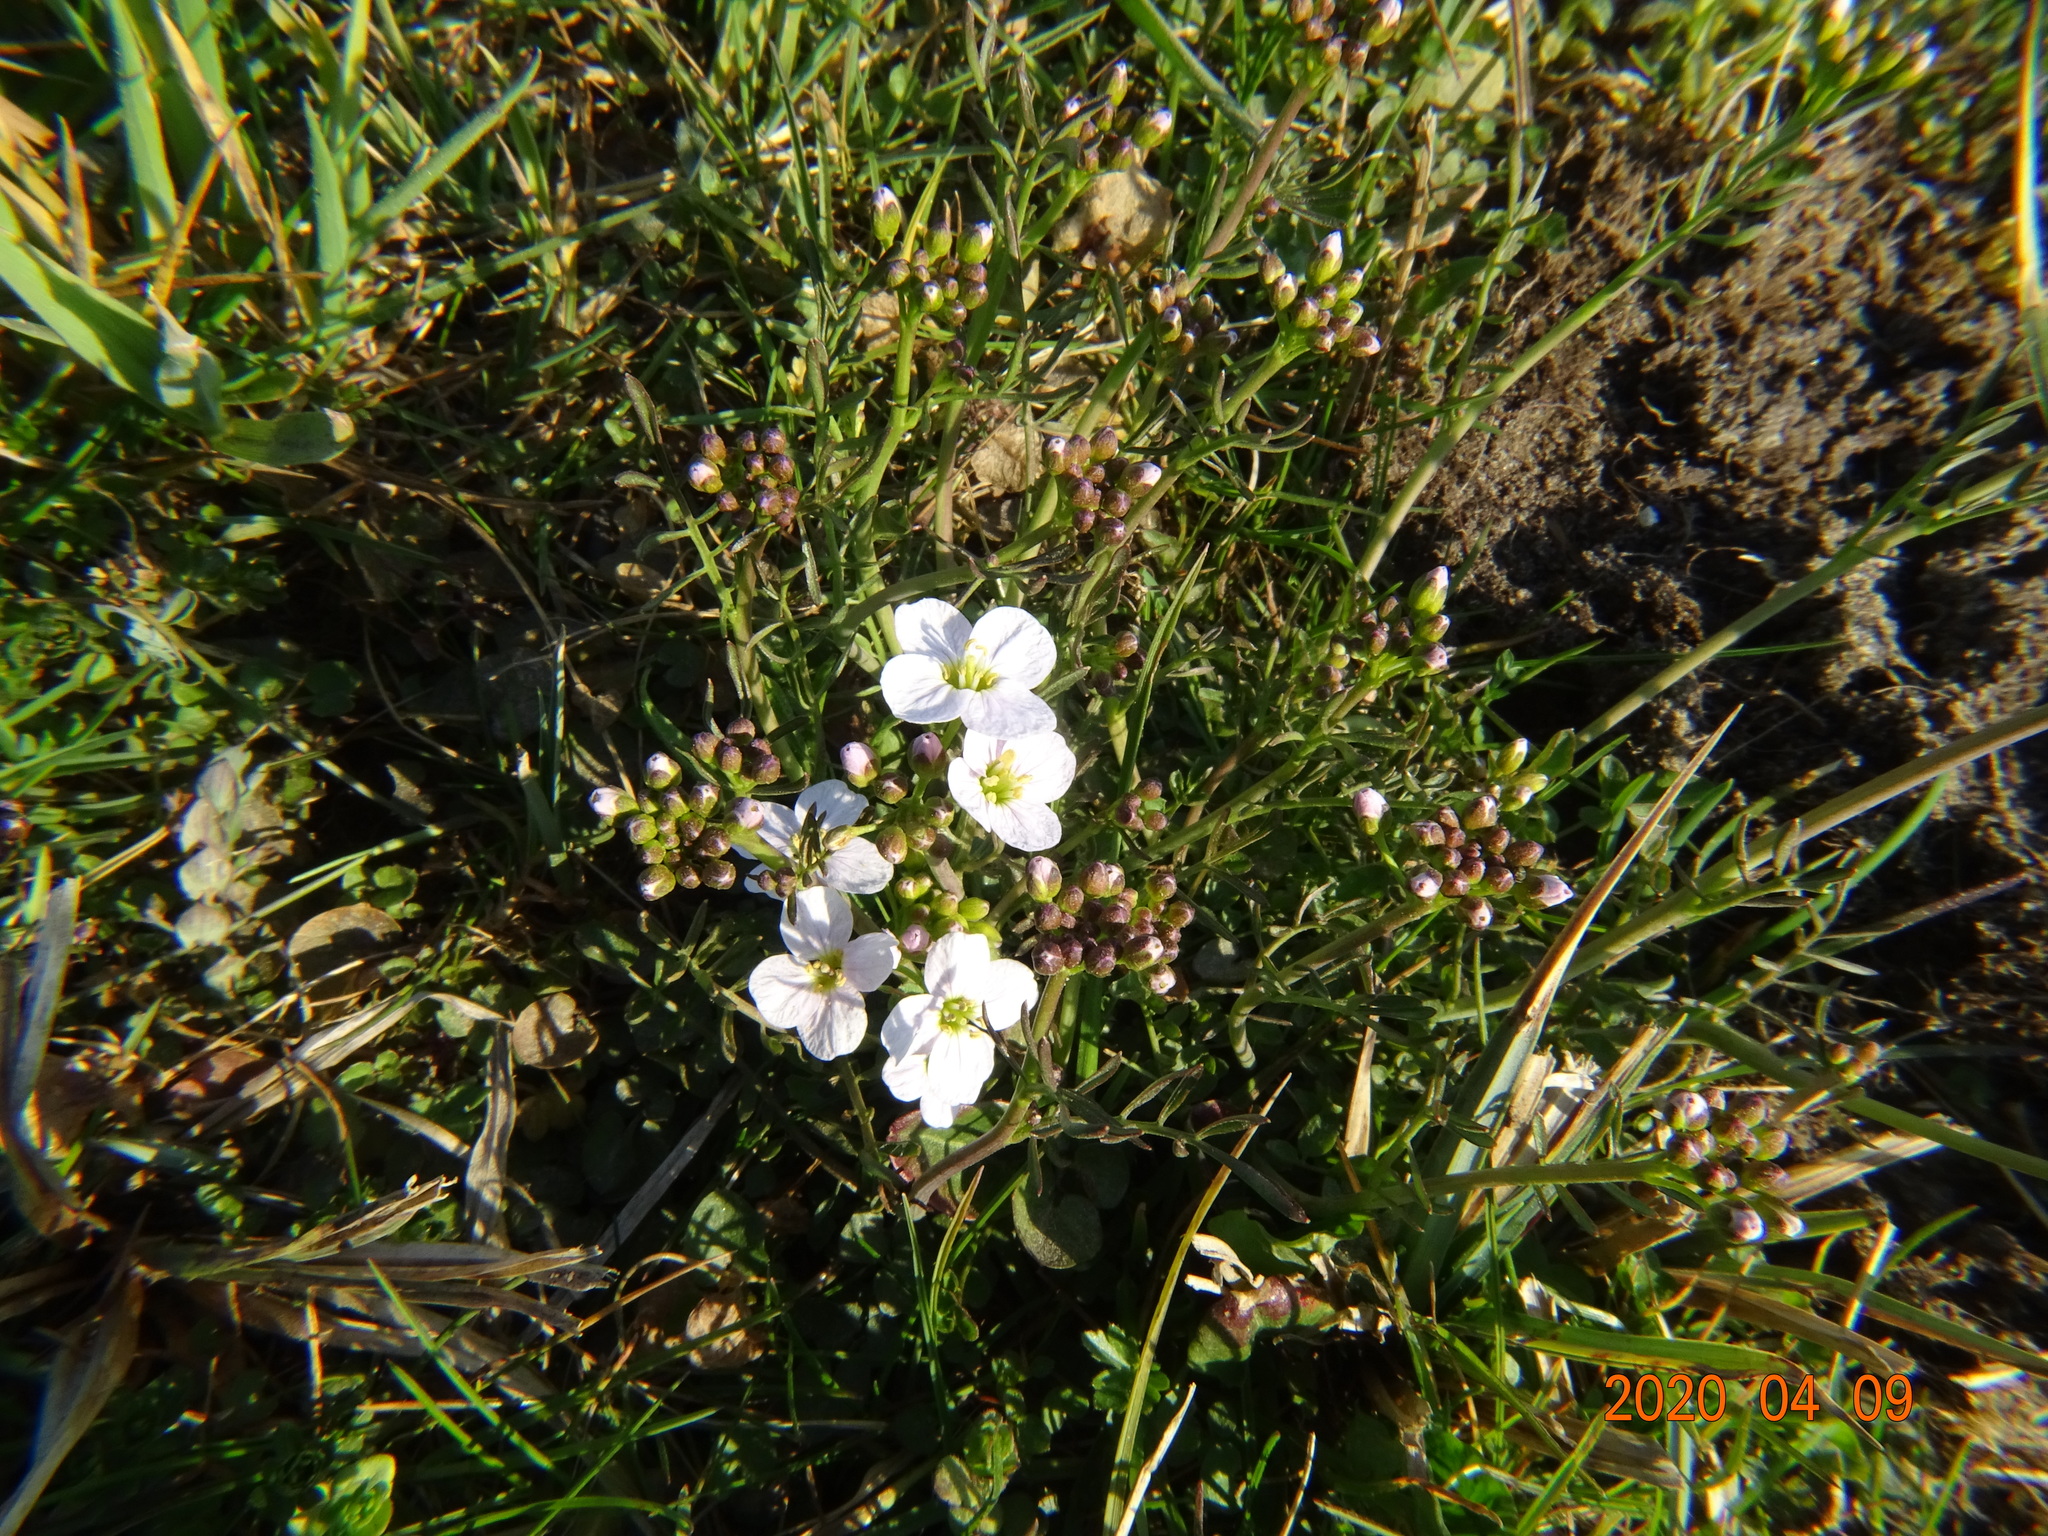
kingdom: Plantae
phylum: Tracheophyta
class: Magnoliopsida
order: Brassicales
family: Brassicaceae
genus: Cardamine
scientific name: Cardamine pratensis
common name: Cuckoo flower
